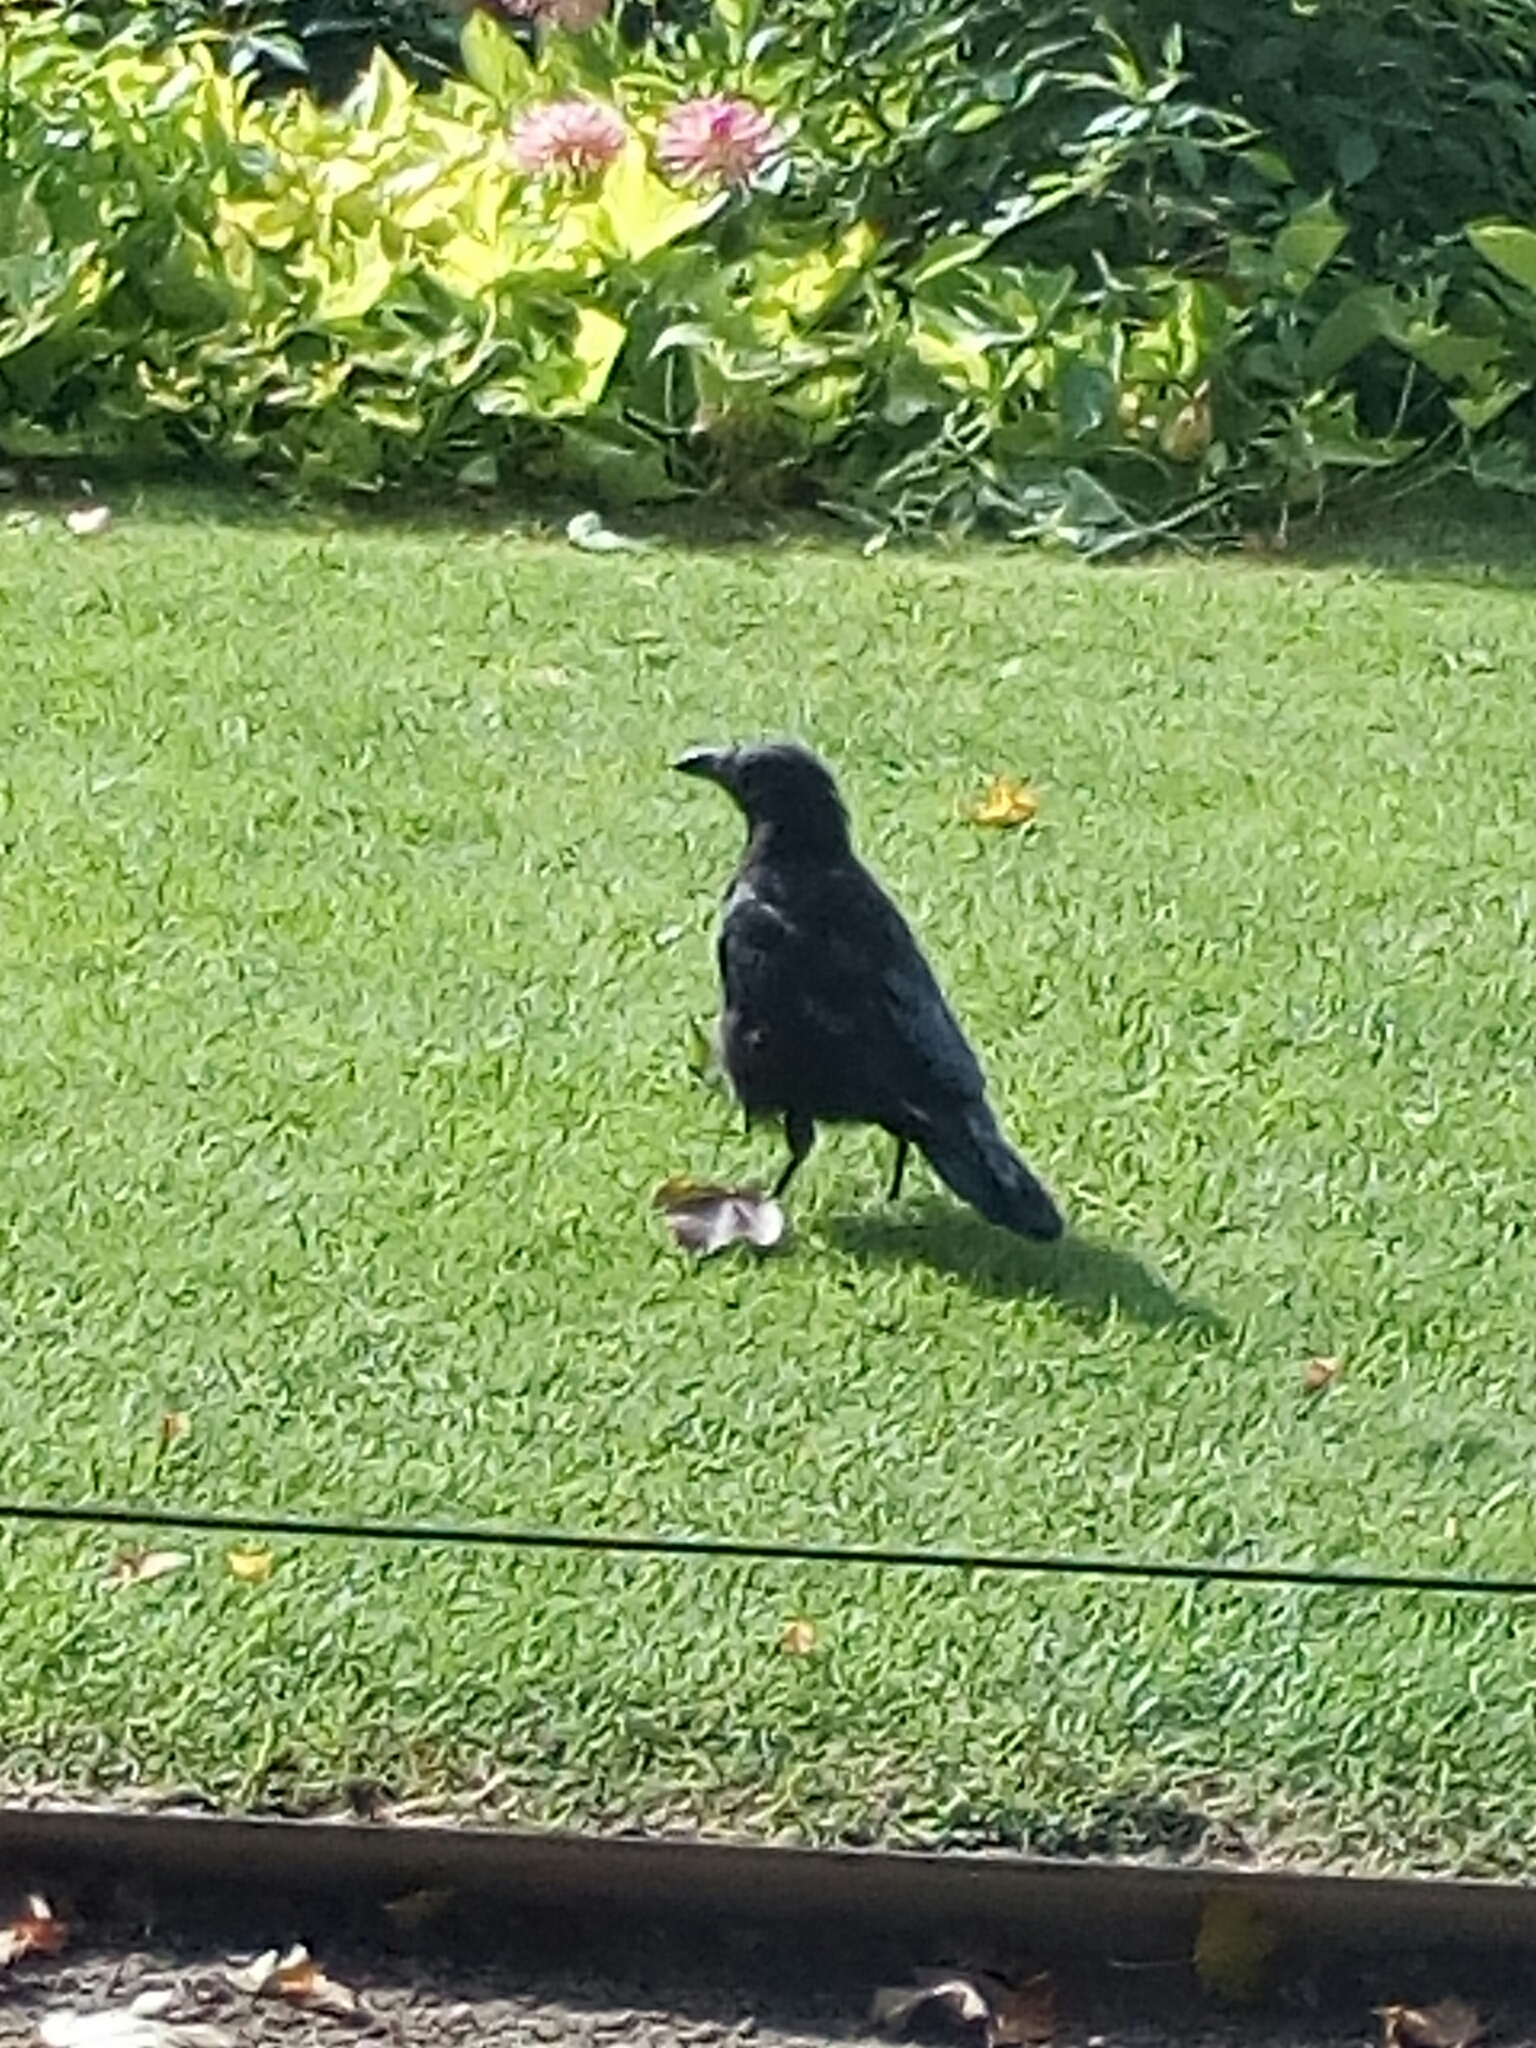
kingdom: Animalia
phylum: Chordata
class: Aves
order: Passeriformes
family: Corvidae
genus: Corvus
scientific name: Corvus corone
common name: Carrion crow
